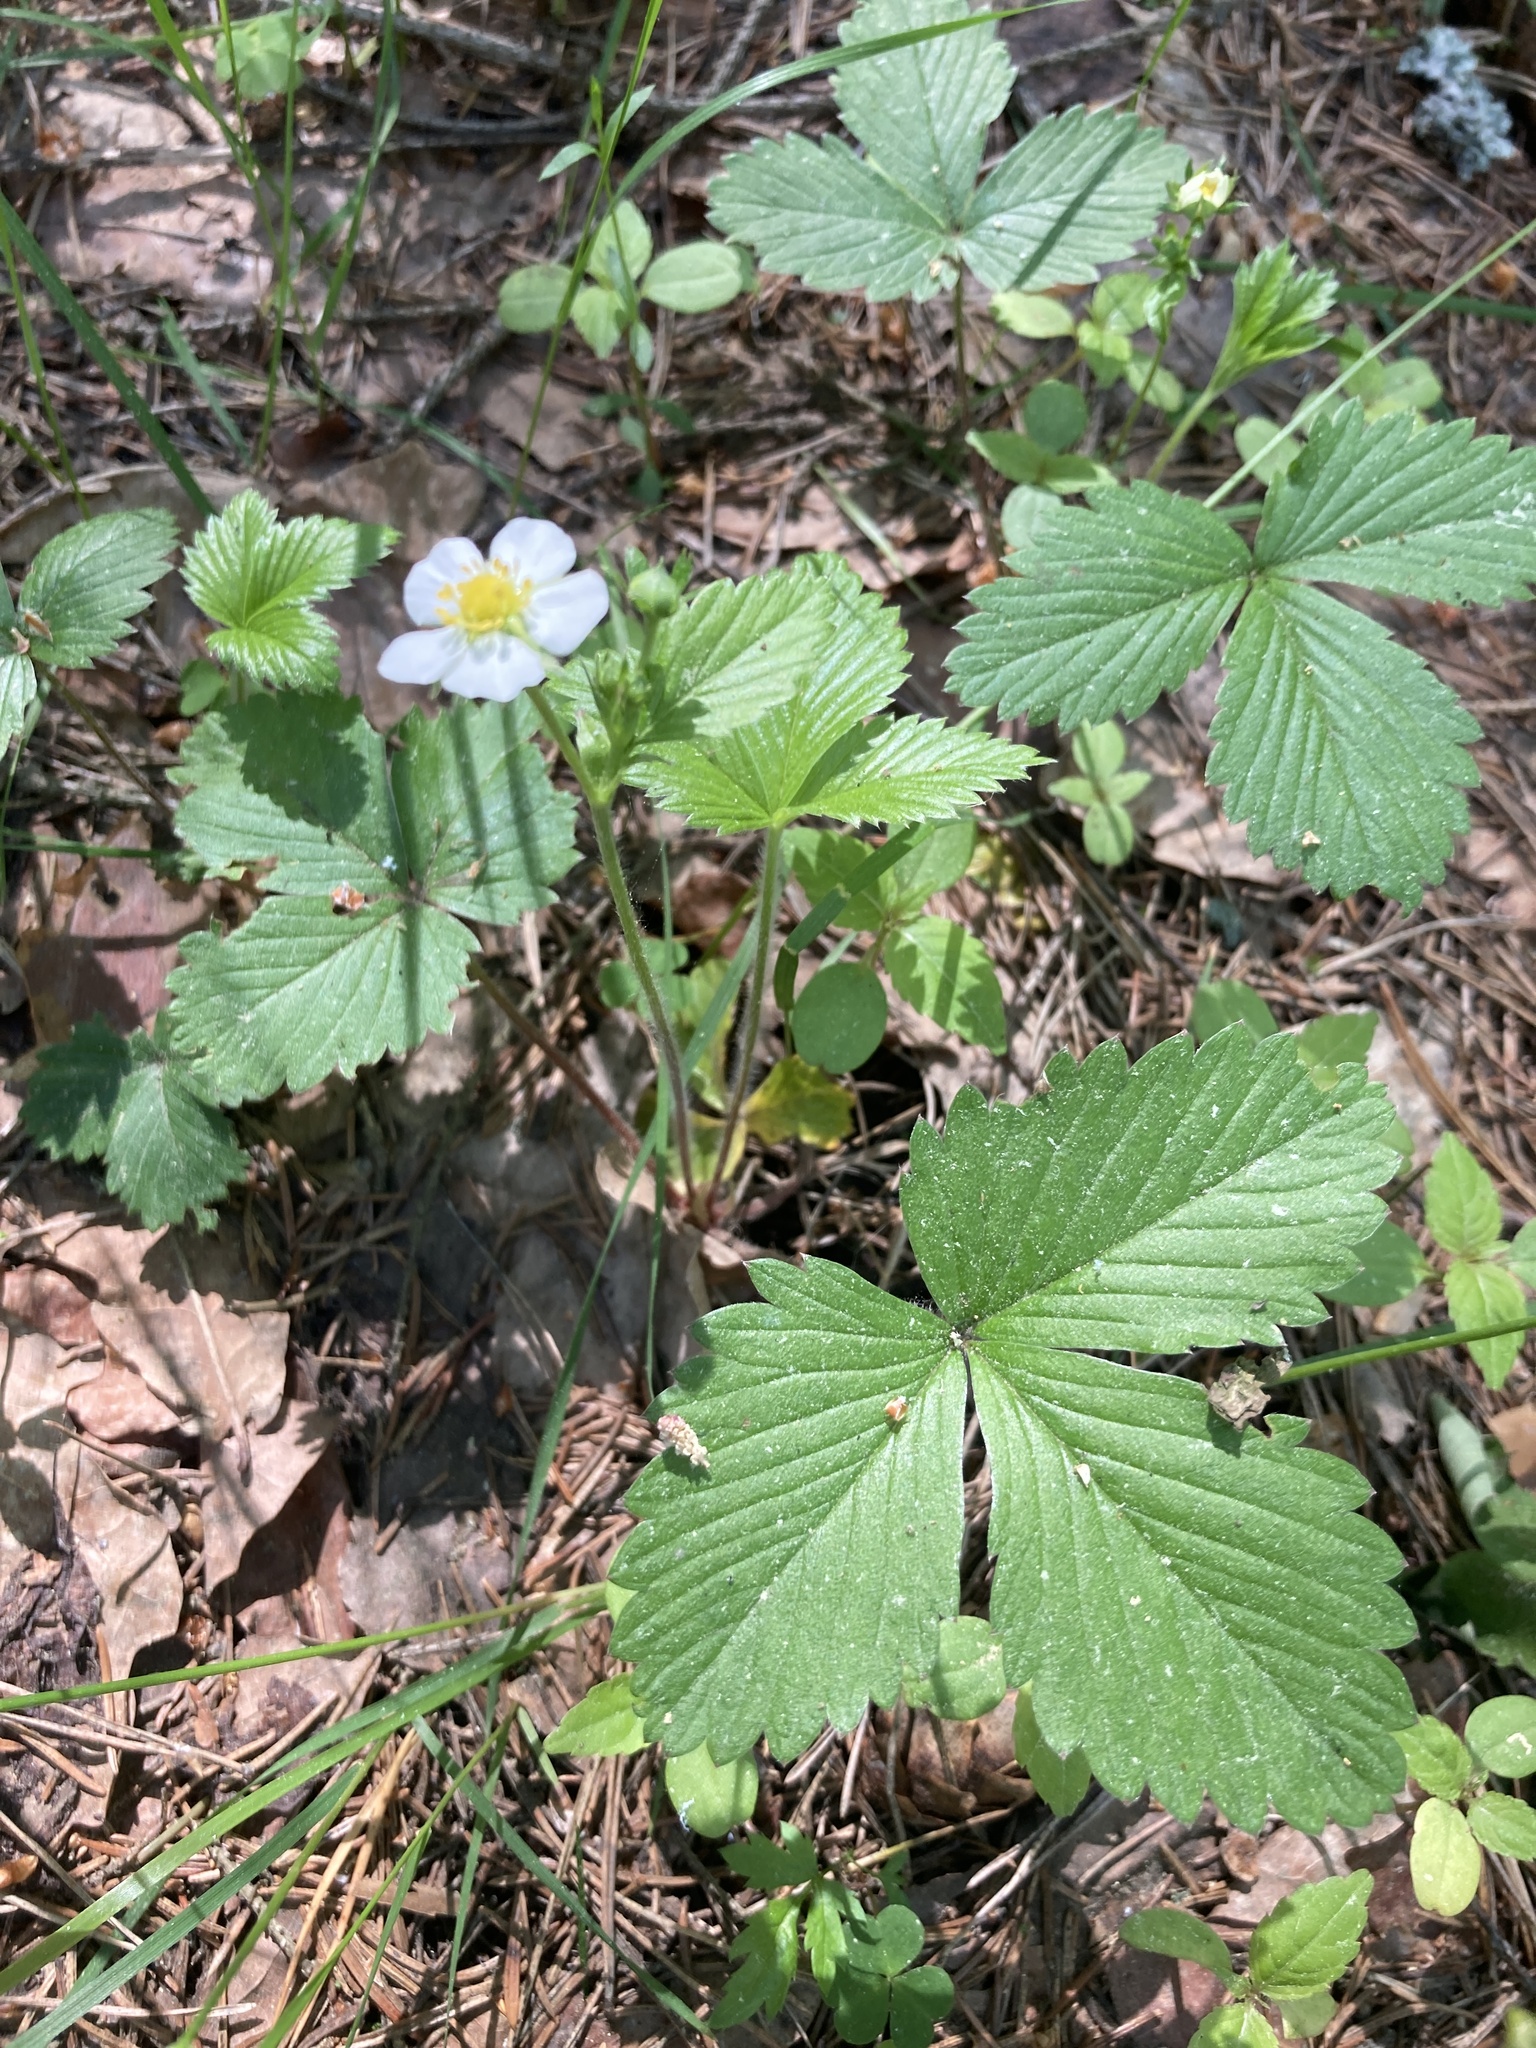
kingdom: Plantae
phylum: Tracheophyta
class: Magnoliopsida
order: Rosales
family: Rosaceae
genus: Fragaria
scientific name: Fragaria vesca
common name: Wild strawberry
